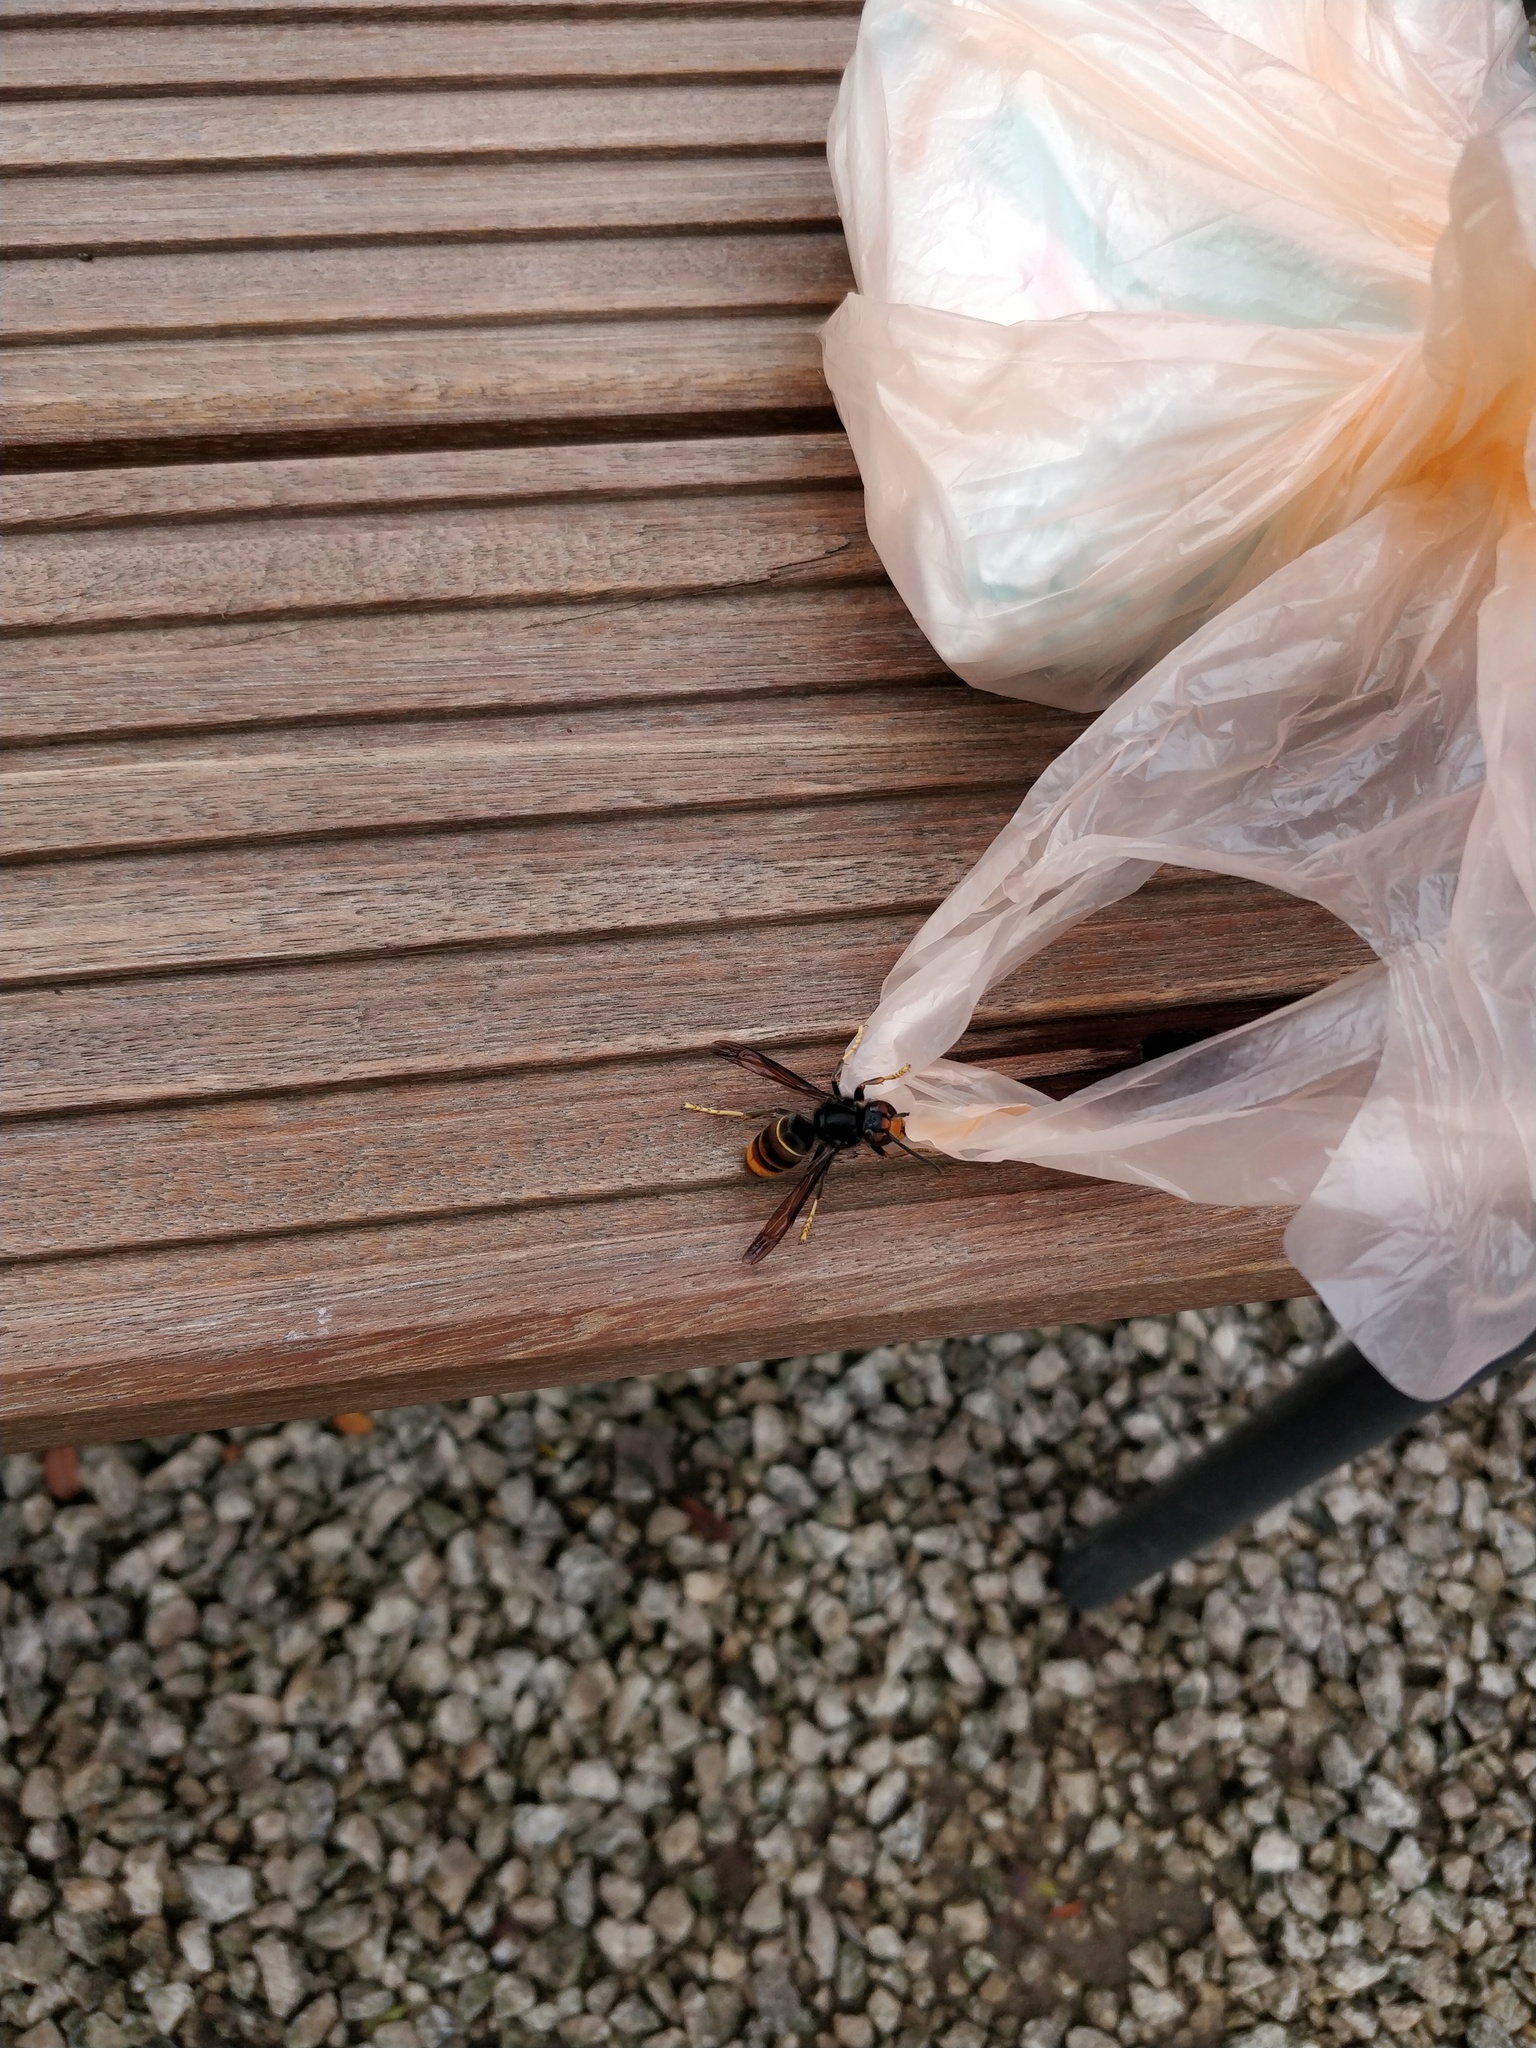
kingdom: Animalia
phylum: Arthropoda
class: Insecta
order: Hymenoptera
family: Vespidae
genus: Vespa
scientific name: Vespa velutina
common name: Asian hornet
